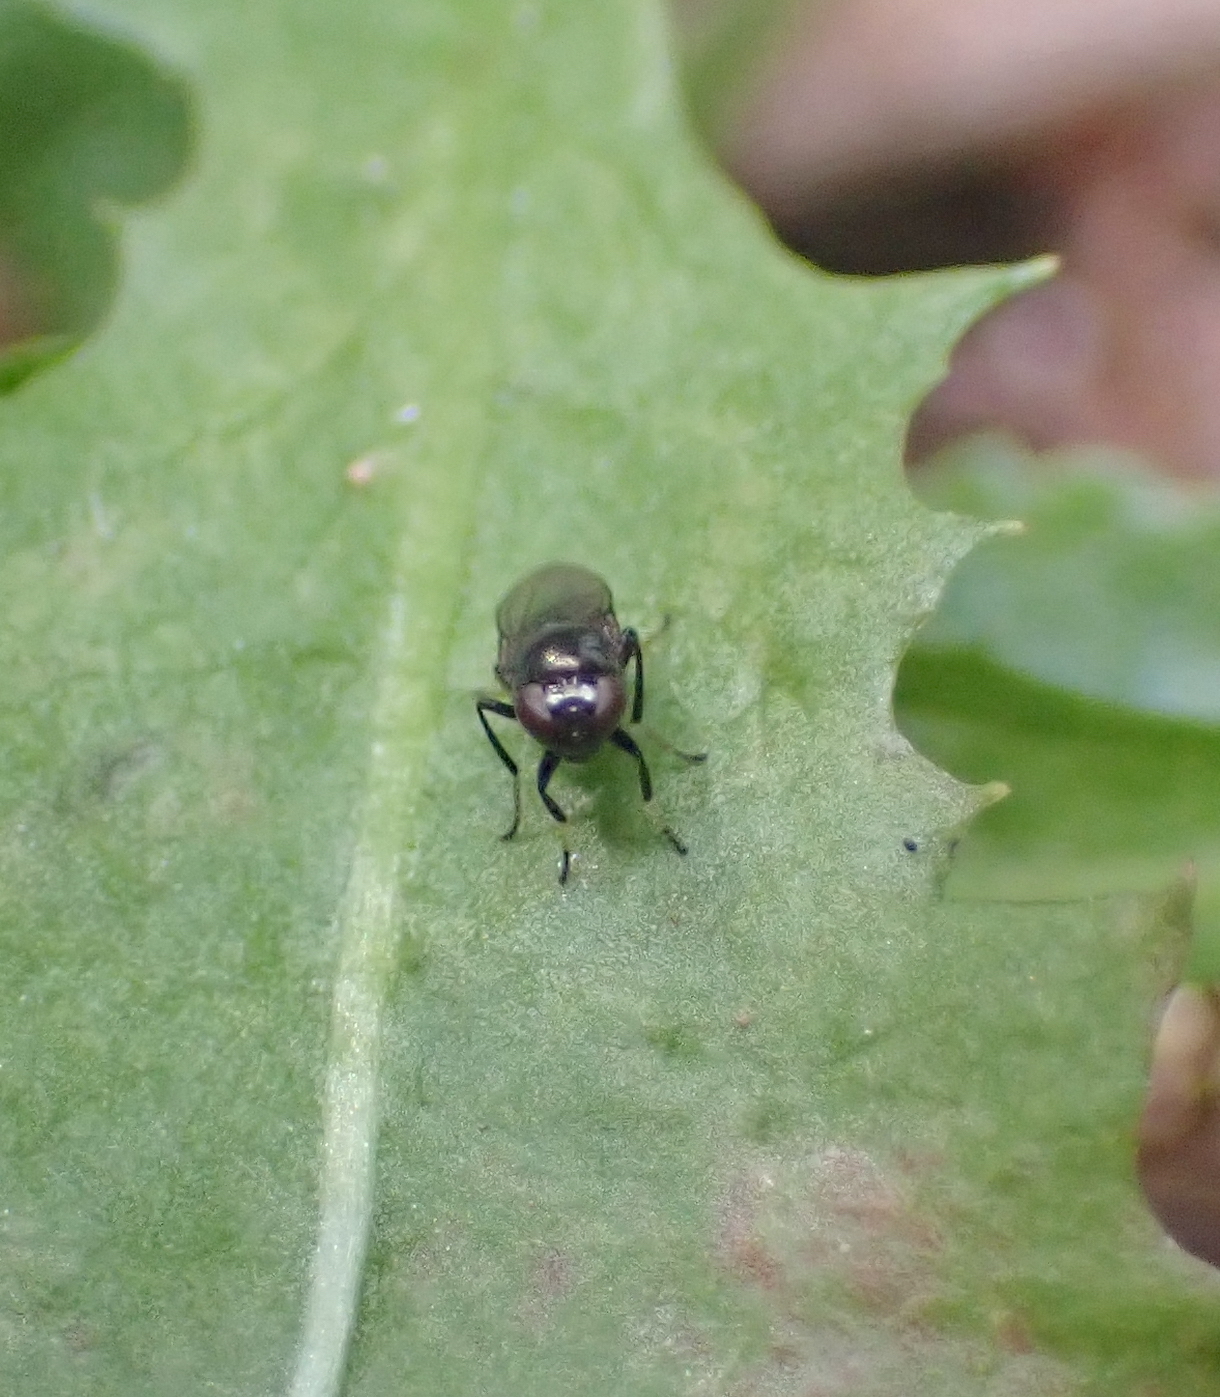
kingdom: Animalia
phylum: Arthropoda
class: Insecta
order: Diptera
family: Ephydridae
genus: Athyroglossa
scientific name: Athyroglossa glabra
